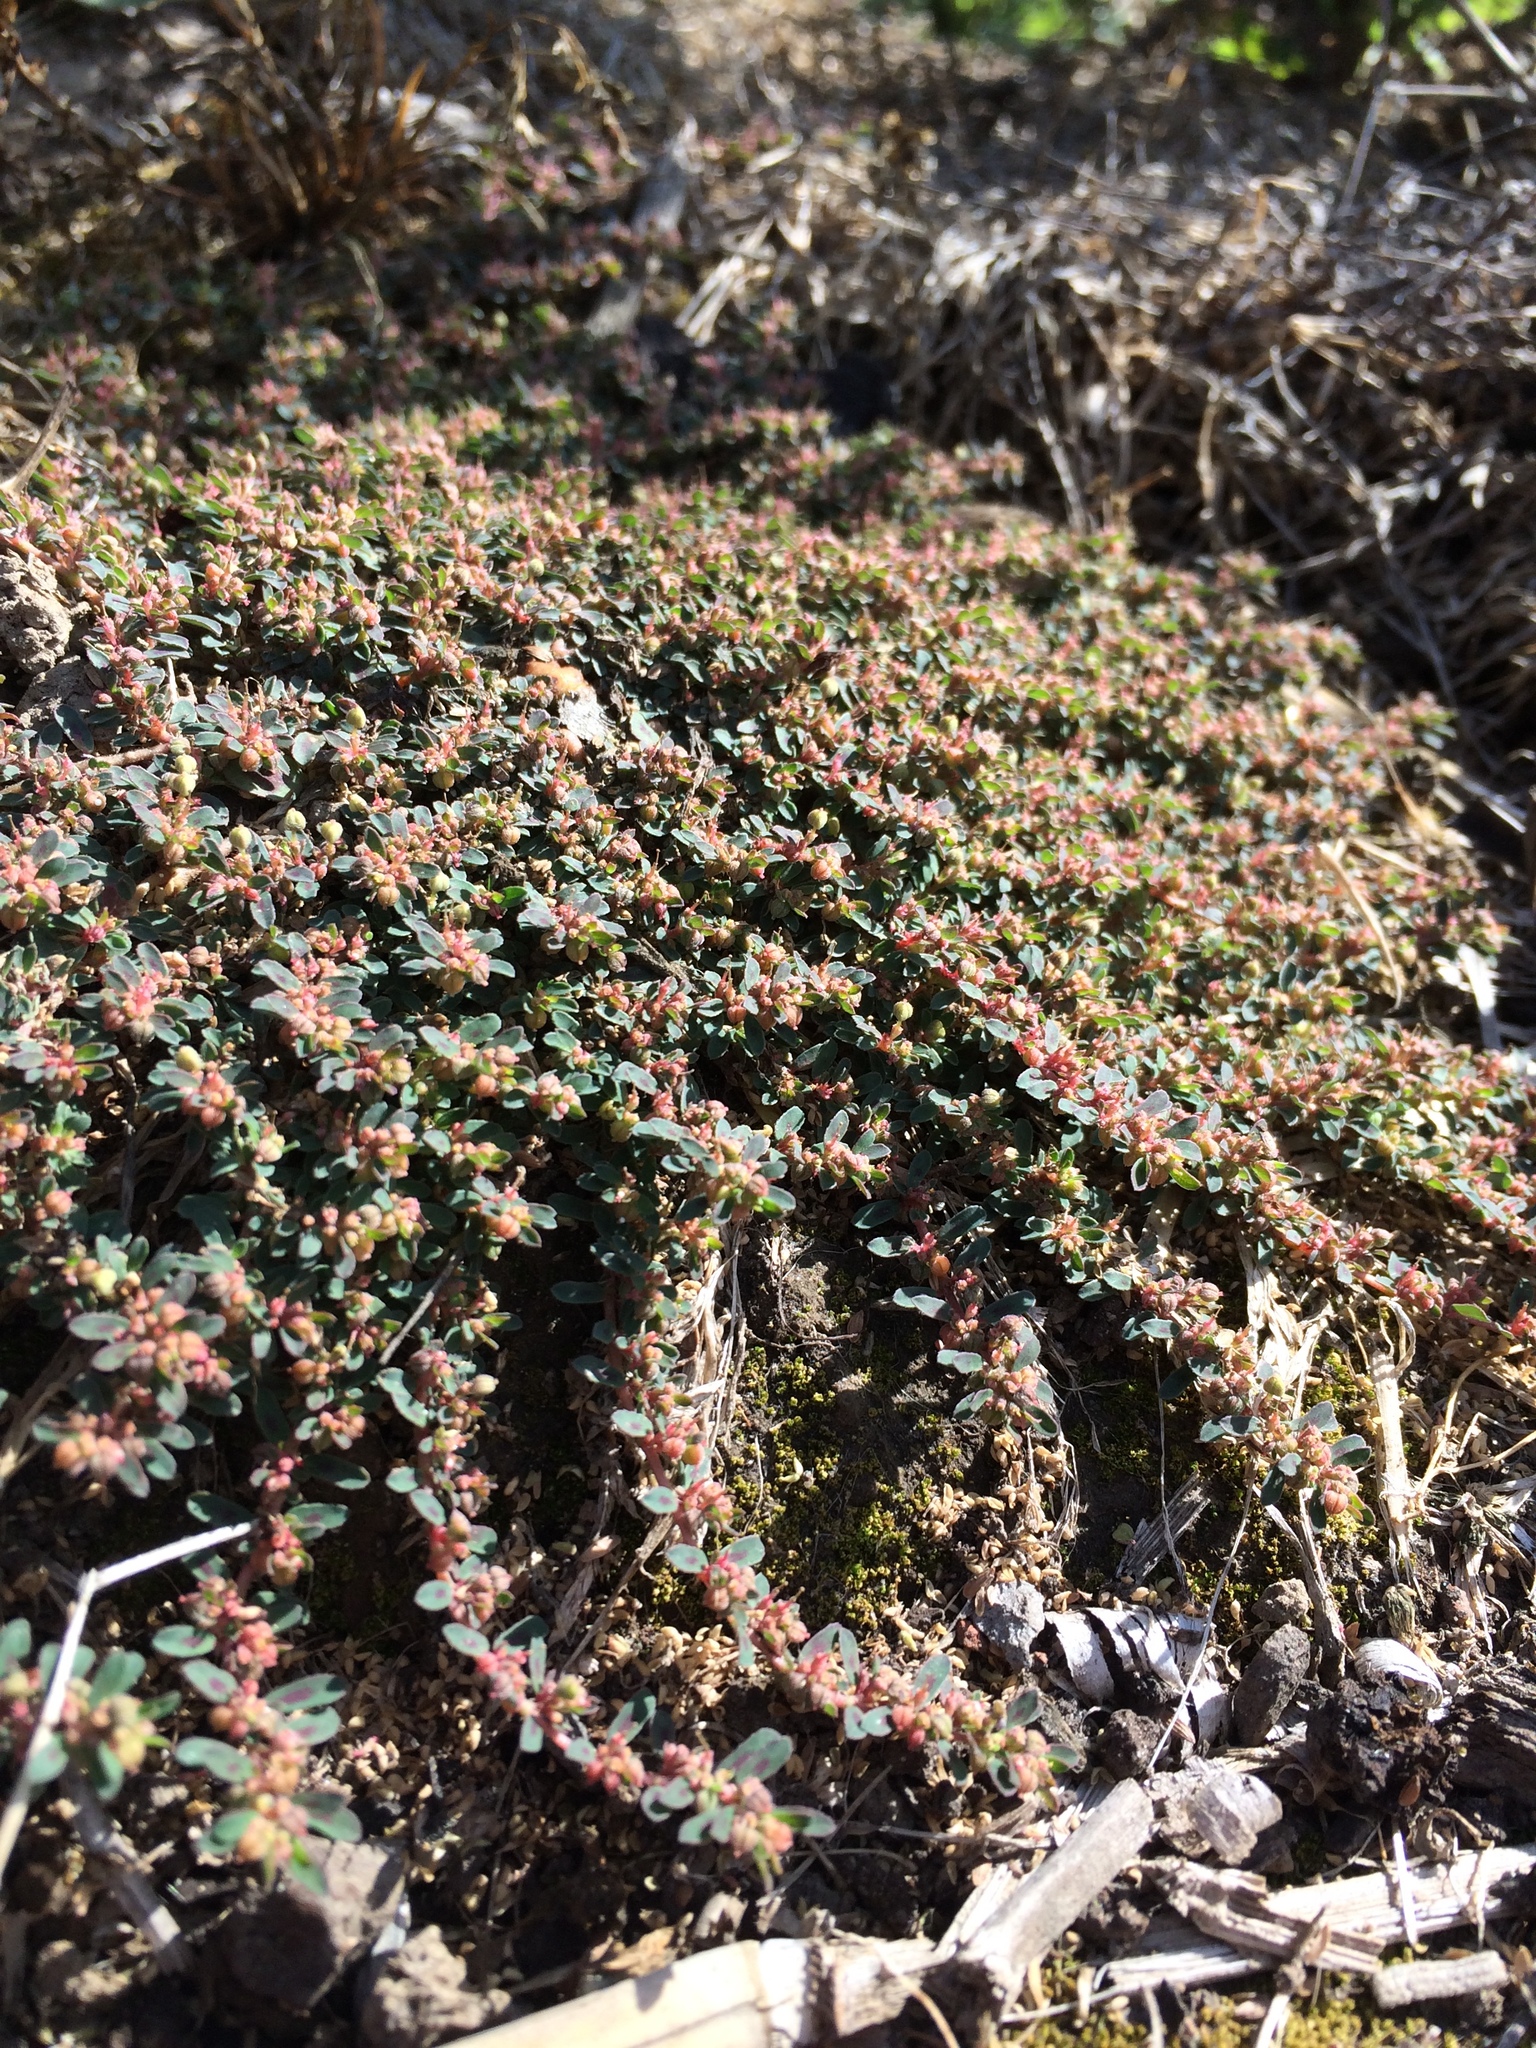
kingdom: Plantae
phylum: Tracheophyta
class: Magnoliopsida
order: Malpighiales
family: Euphorbiaceae
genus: Euphorbia
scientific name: Euphorbia maculata
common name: Spotted spurge
